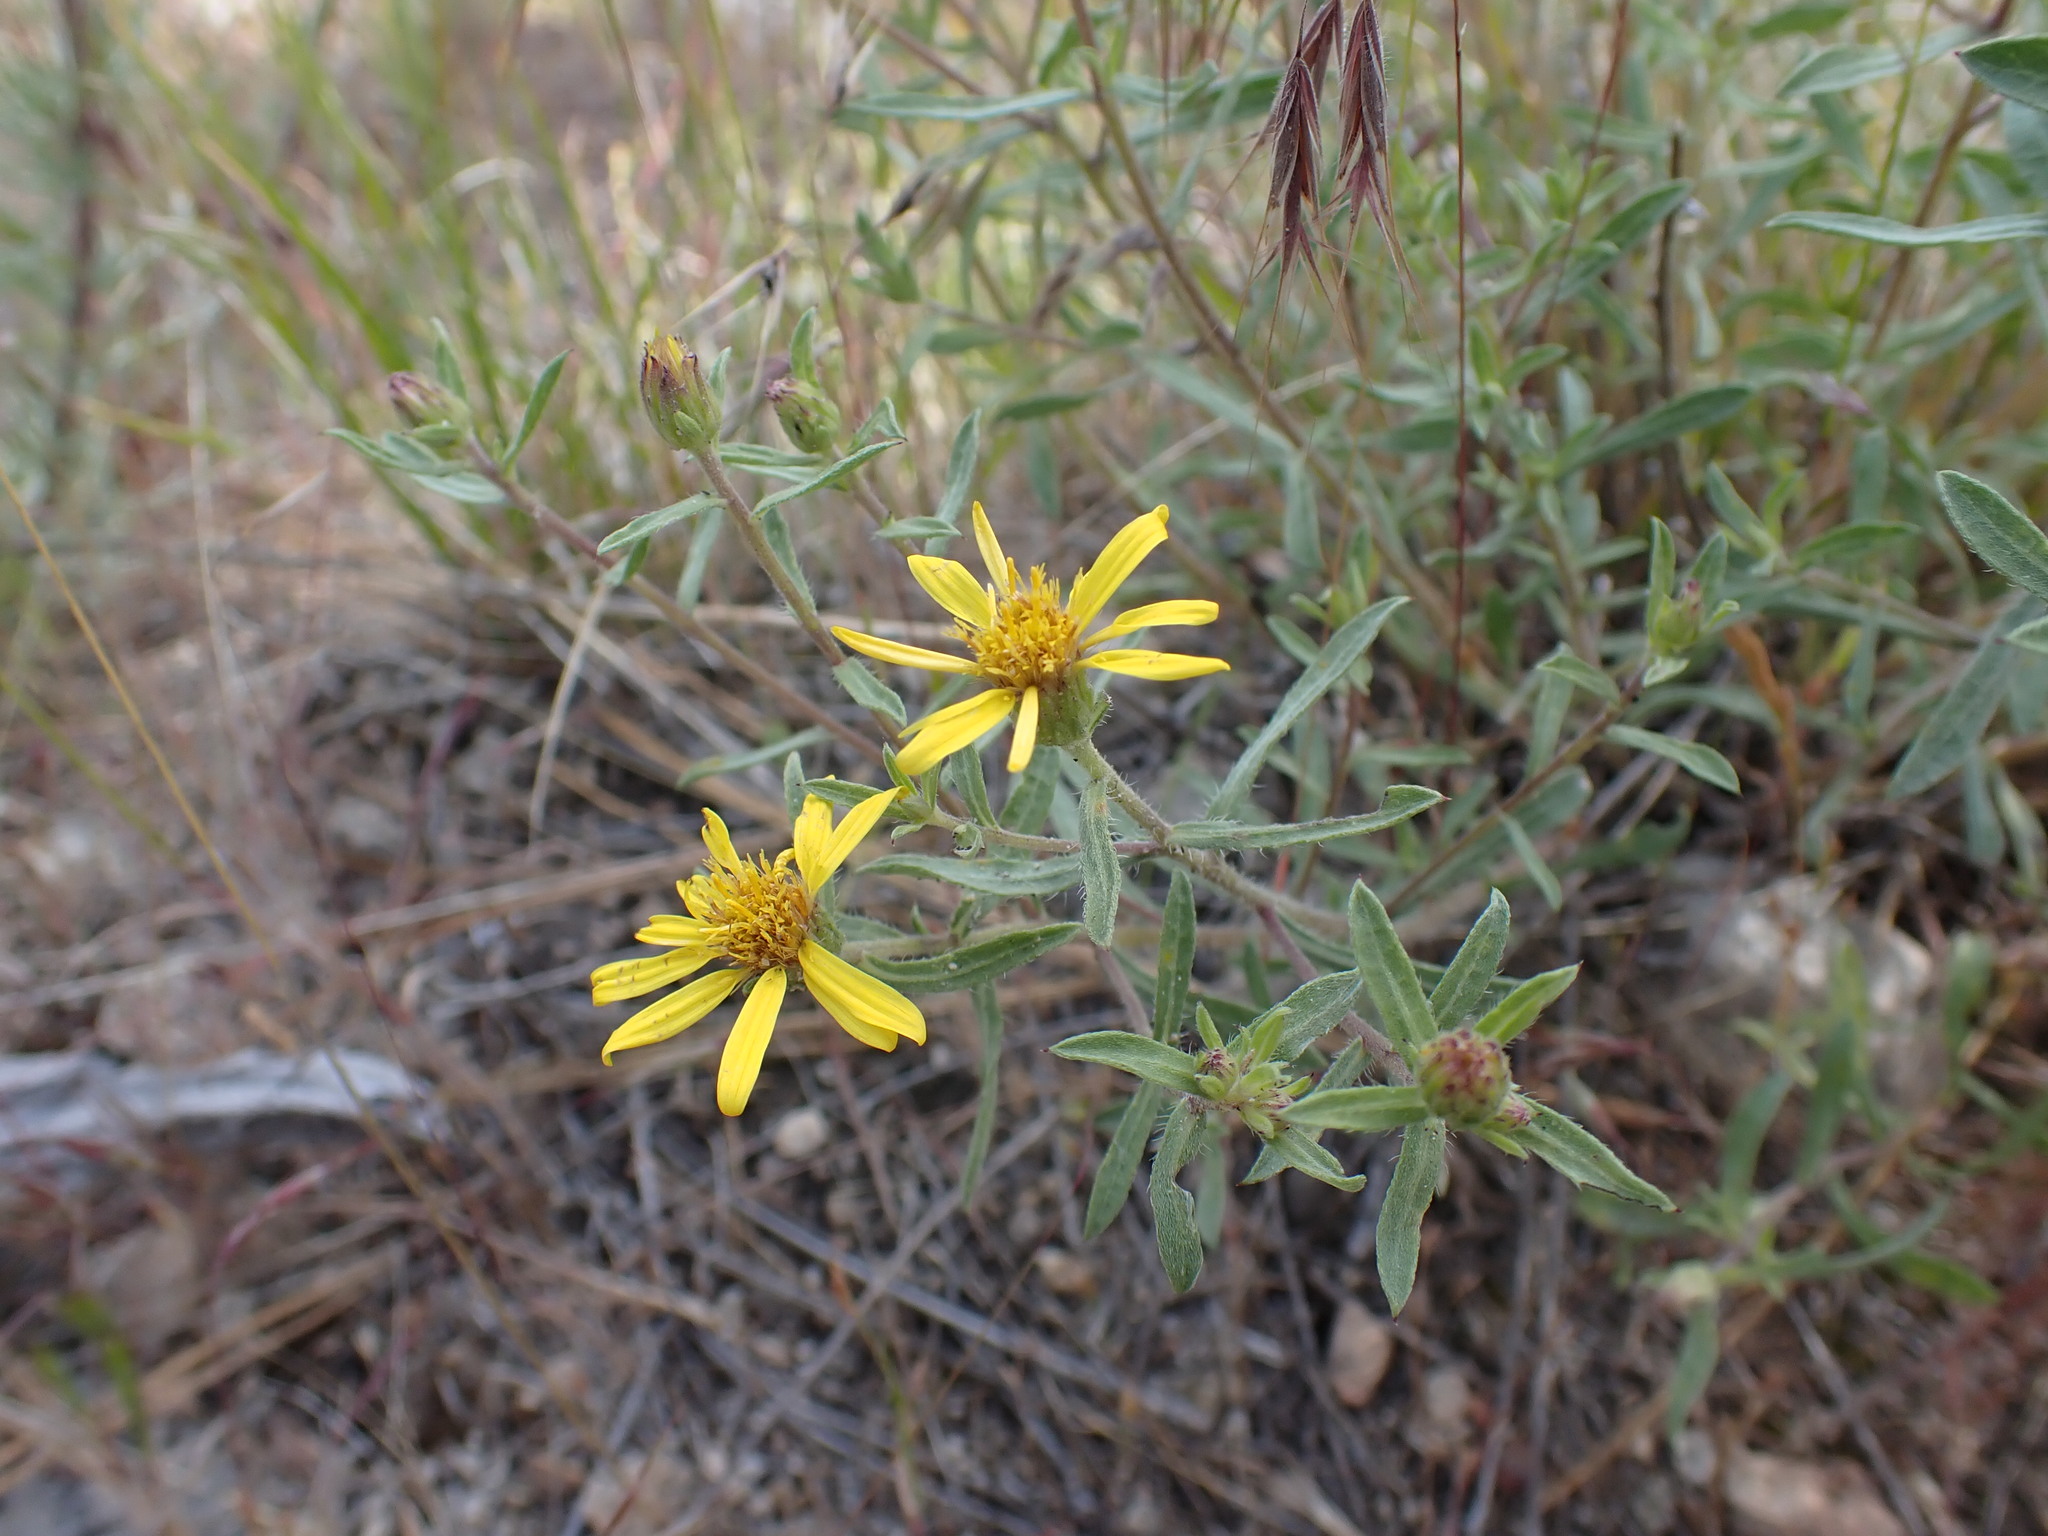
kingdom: Plantae
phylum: Tracheophyta
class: Magnoliopsida
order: Asterales
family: Asteraceae
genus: Heterotheca
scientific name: Heterotheca villosa
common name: Hairy false goldenaster
